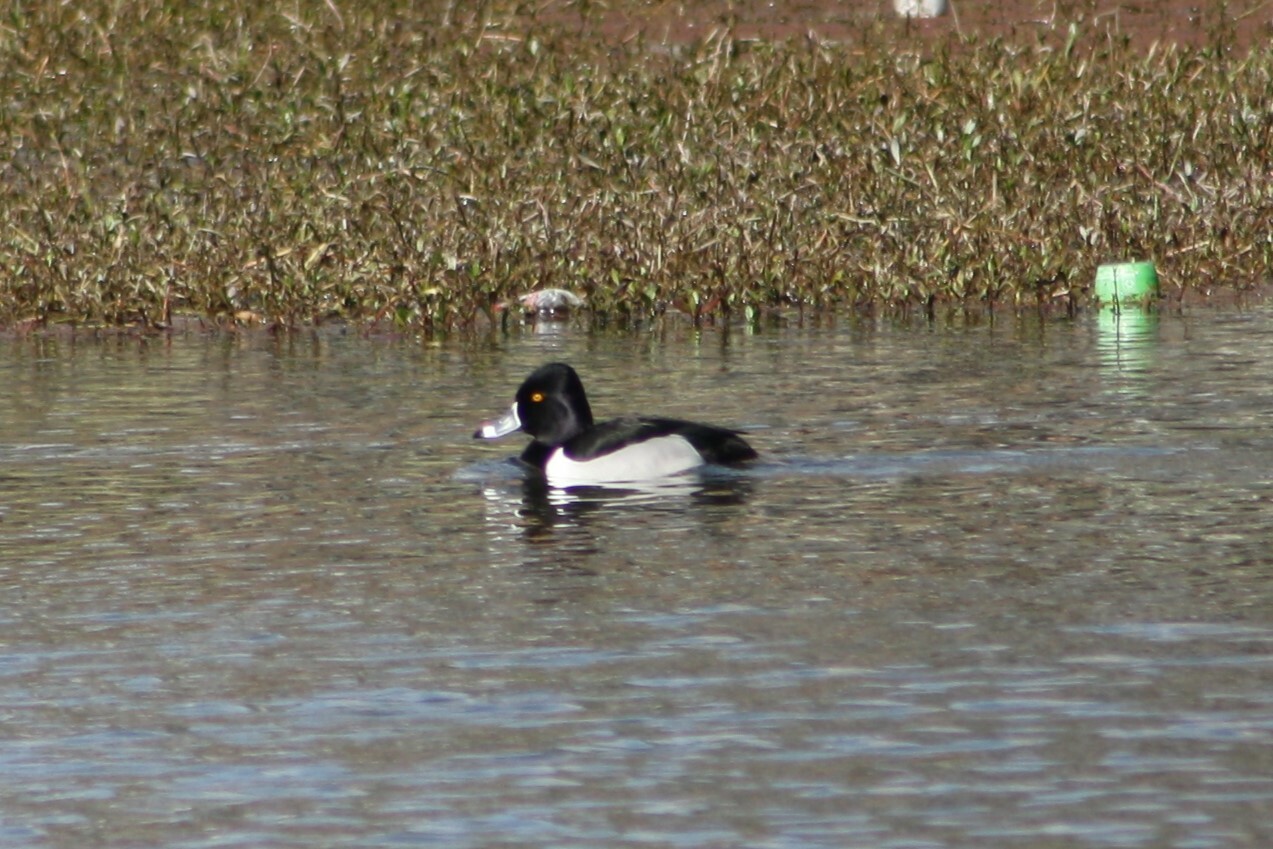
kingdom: Animalia
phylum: Chordata
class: Aves
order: Anseriformes
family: Anatidae
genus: Aythya
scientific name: Aythya collaris
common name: Ring-necked duck
